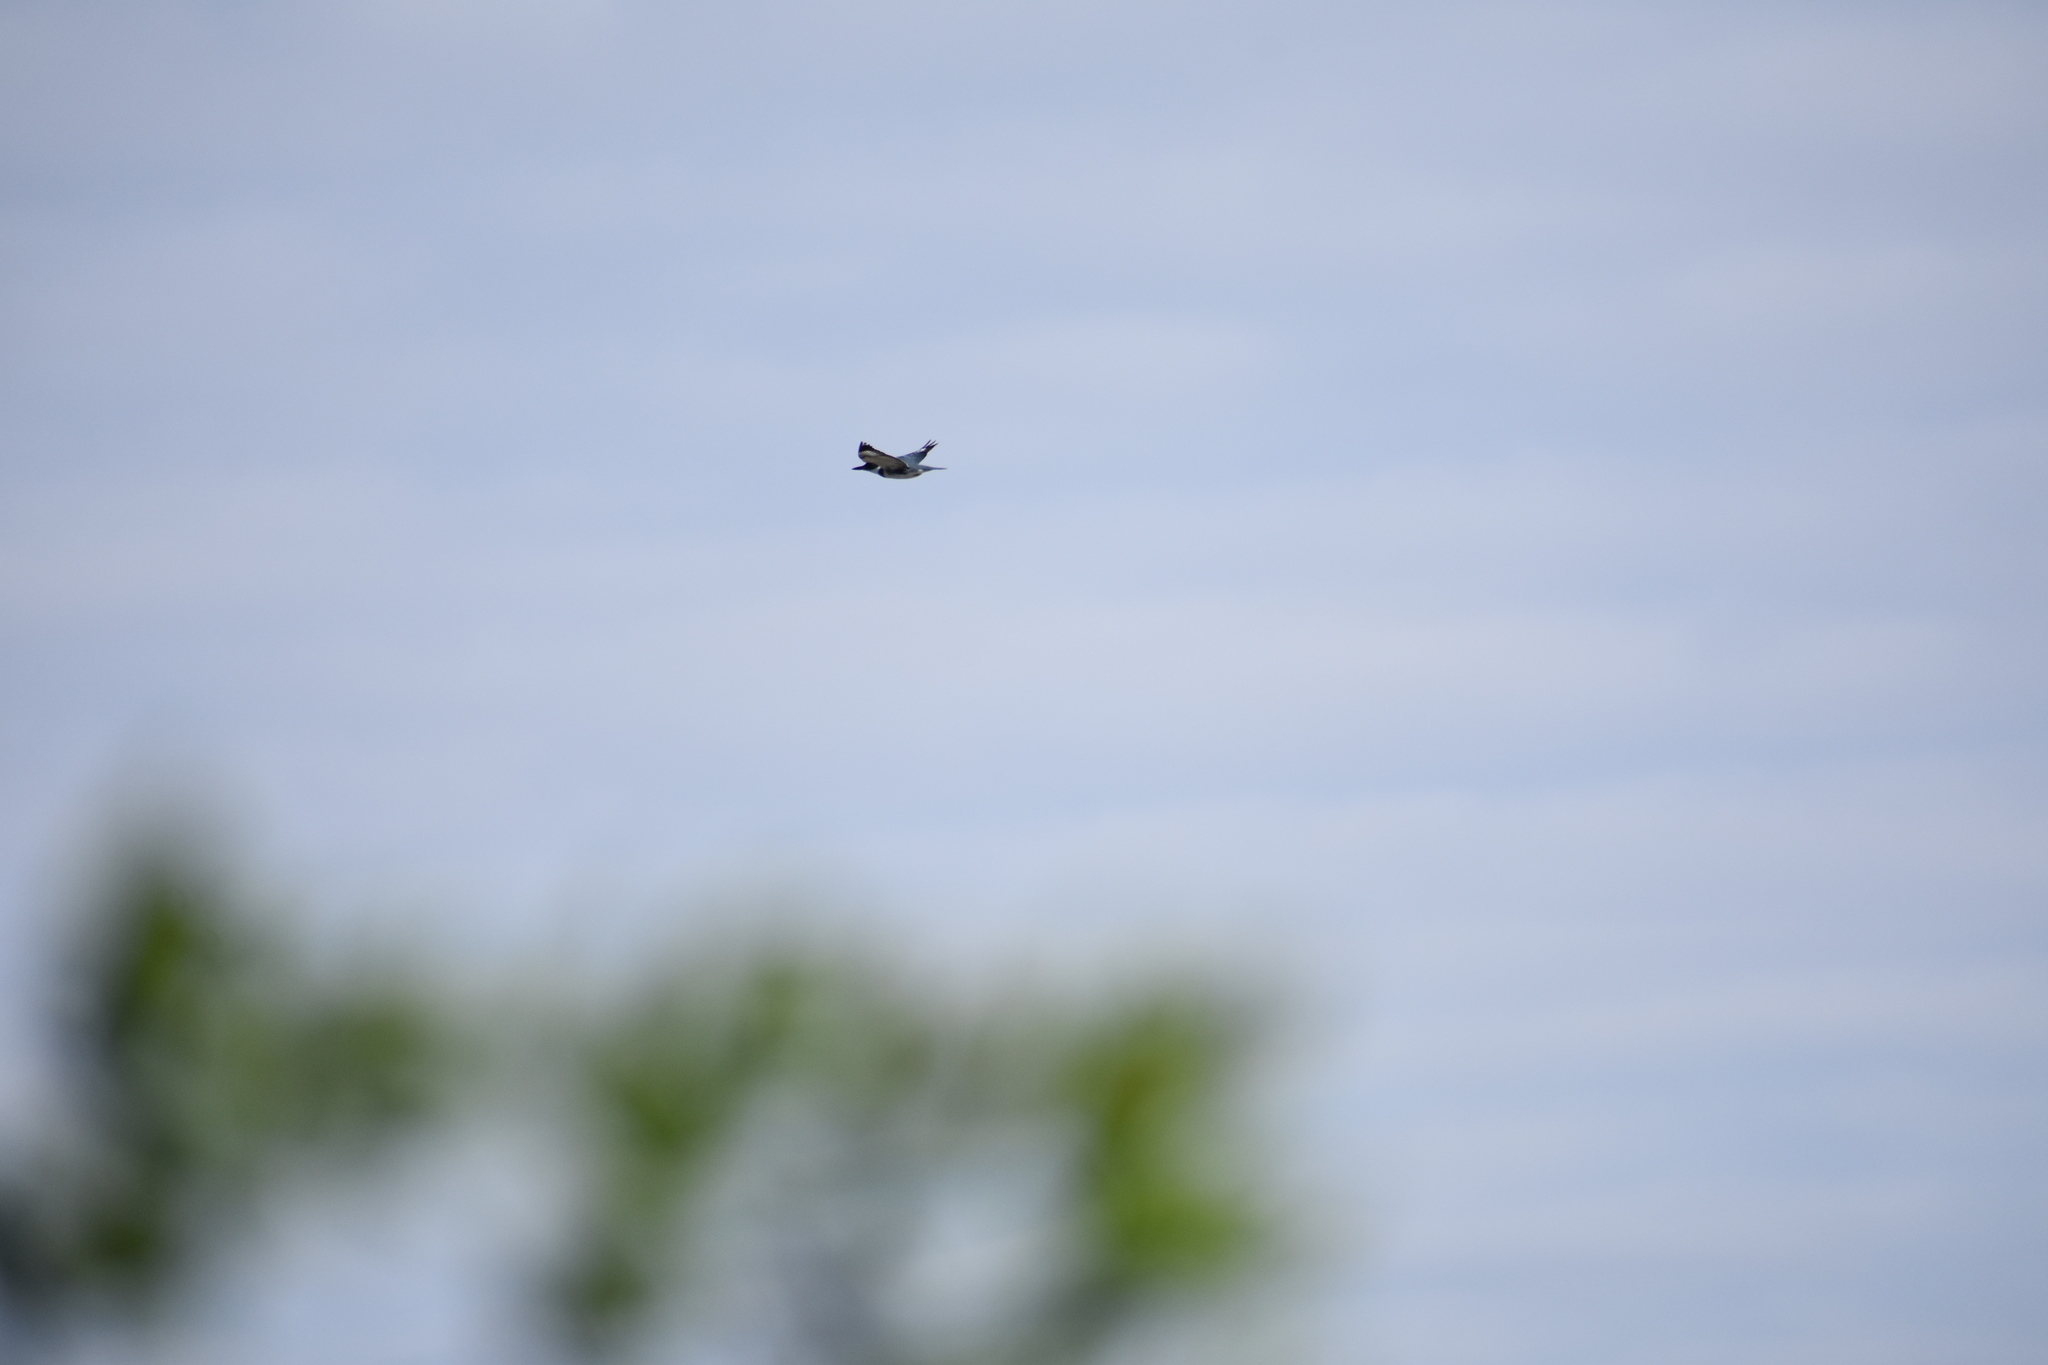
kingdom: Animalia
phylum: Chordata
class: Aves
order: Coraciiformes
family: Alcedinidae
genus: Megaceryle
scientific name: Megaceryle alcyon
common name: Belted kingfisher
